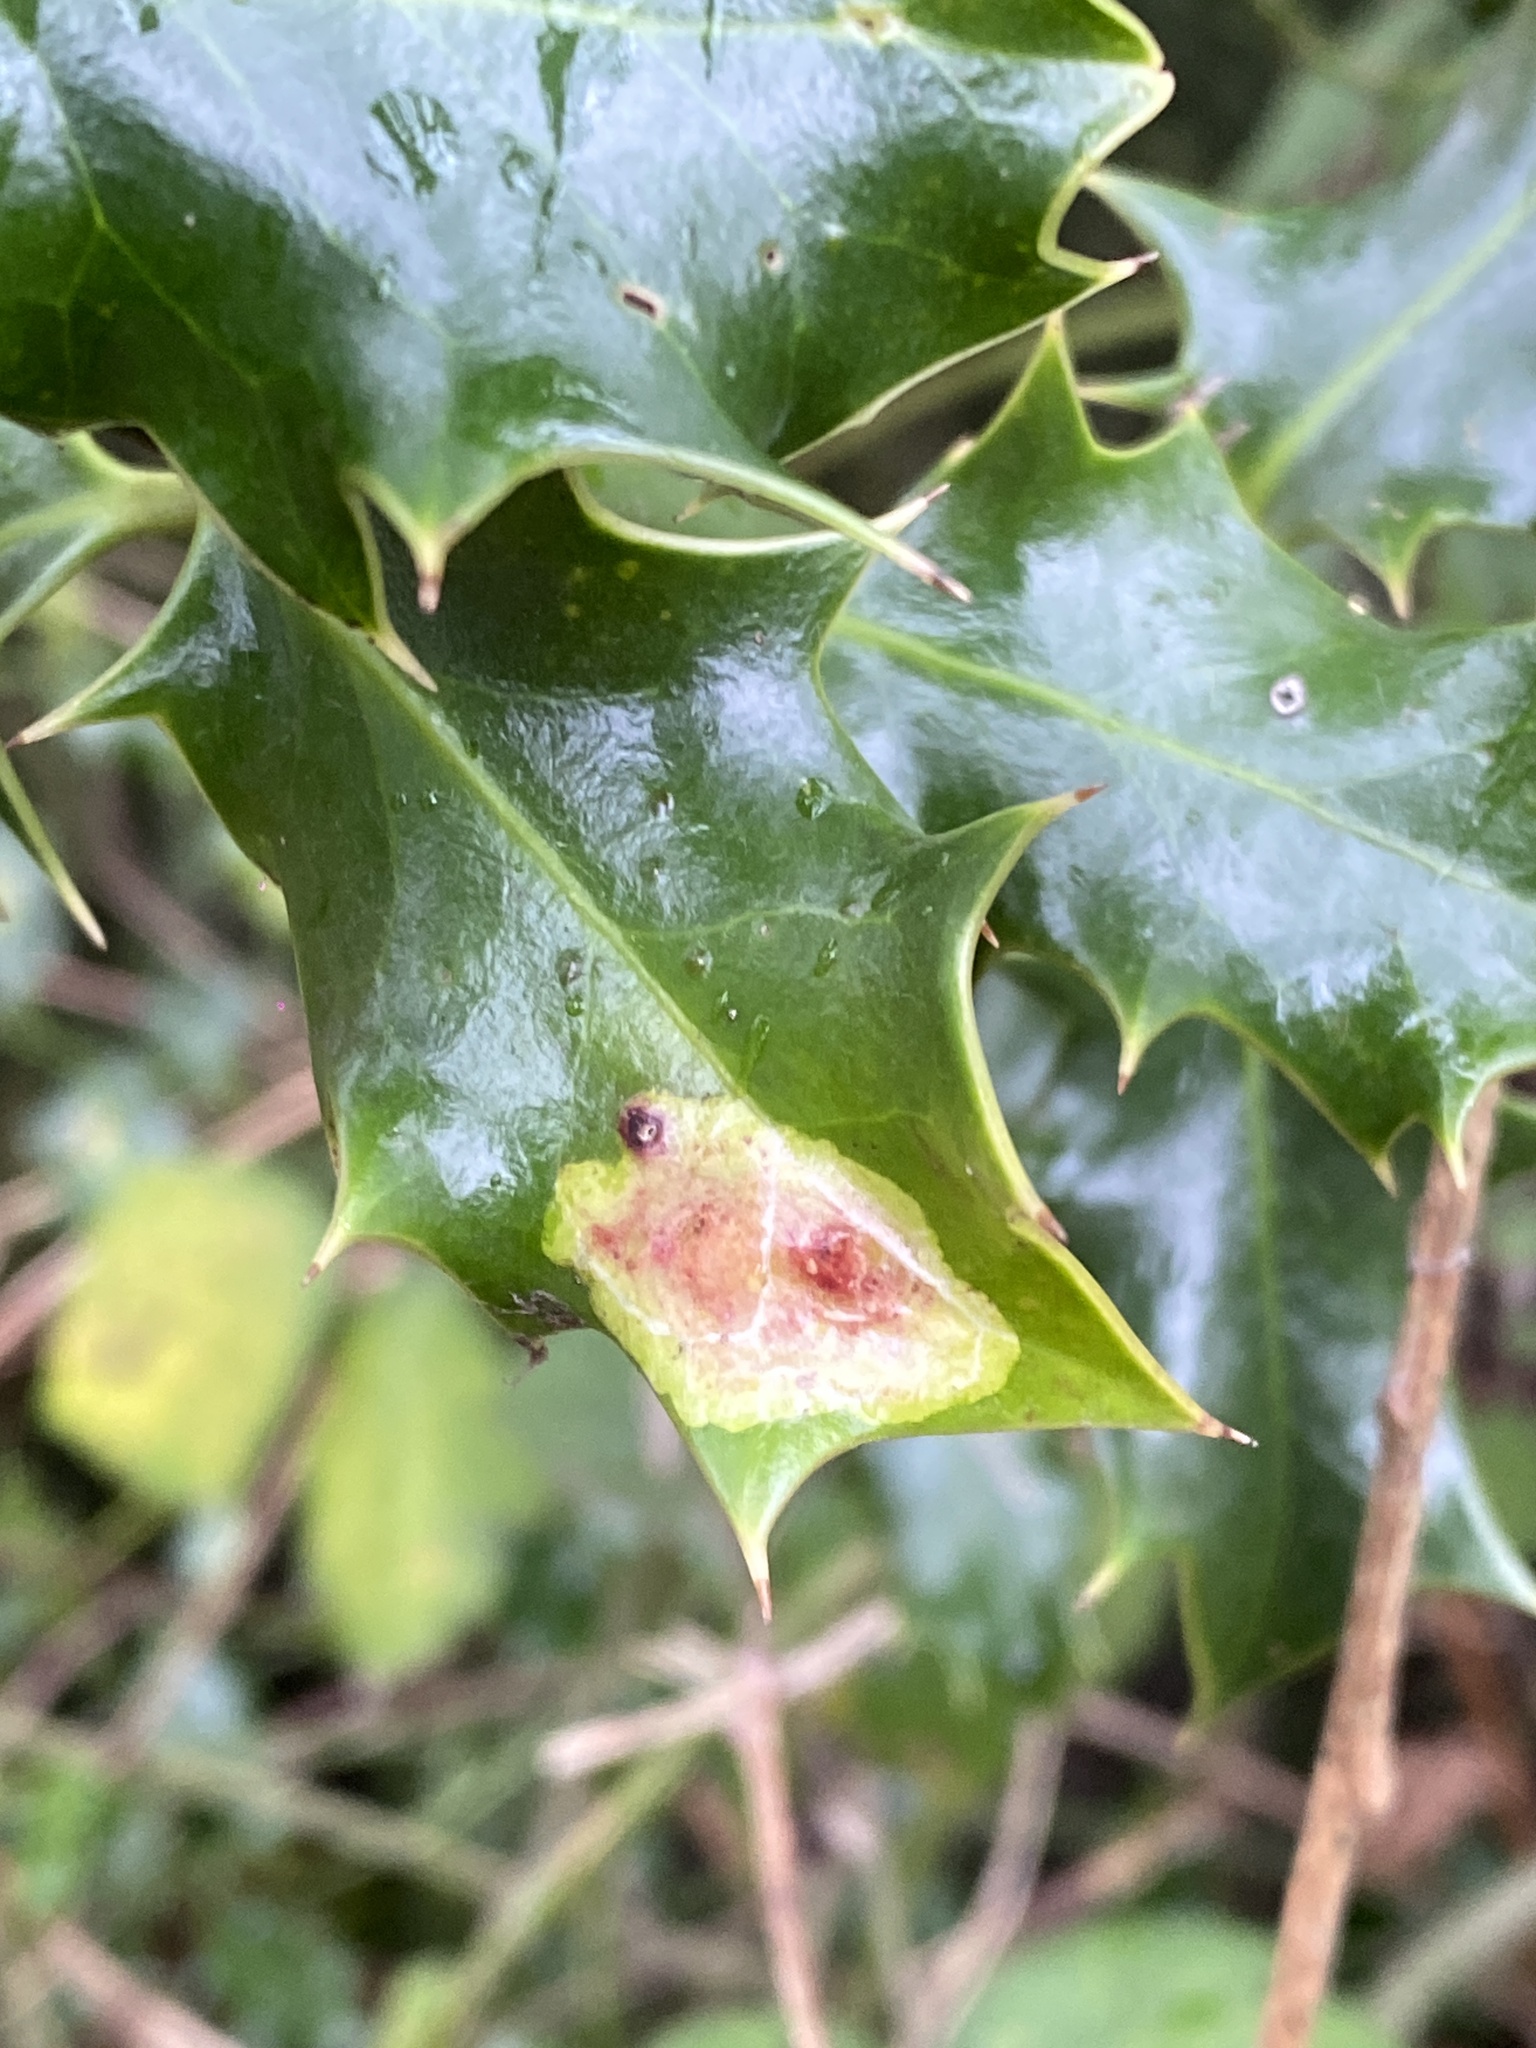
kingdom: Animalia
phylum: Arthropoda
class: Insecta
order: Diptera
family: Agromyzidae
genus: Phytomyza
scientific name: Phytomyza ilicis
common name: Holly leafminer
